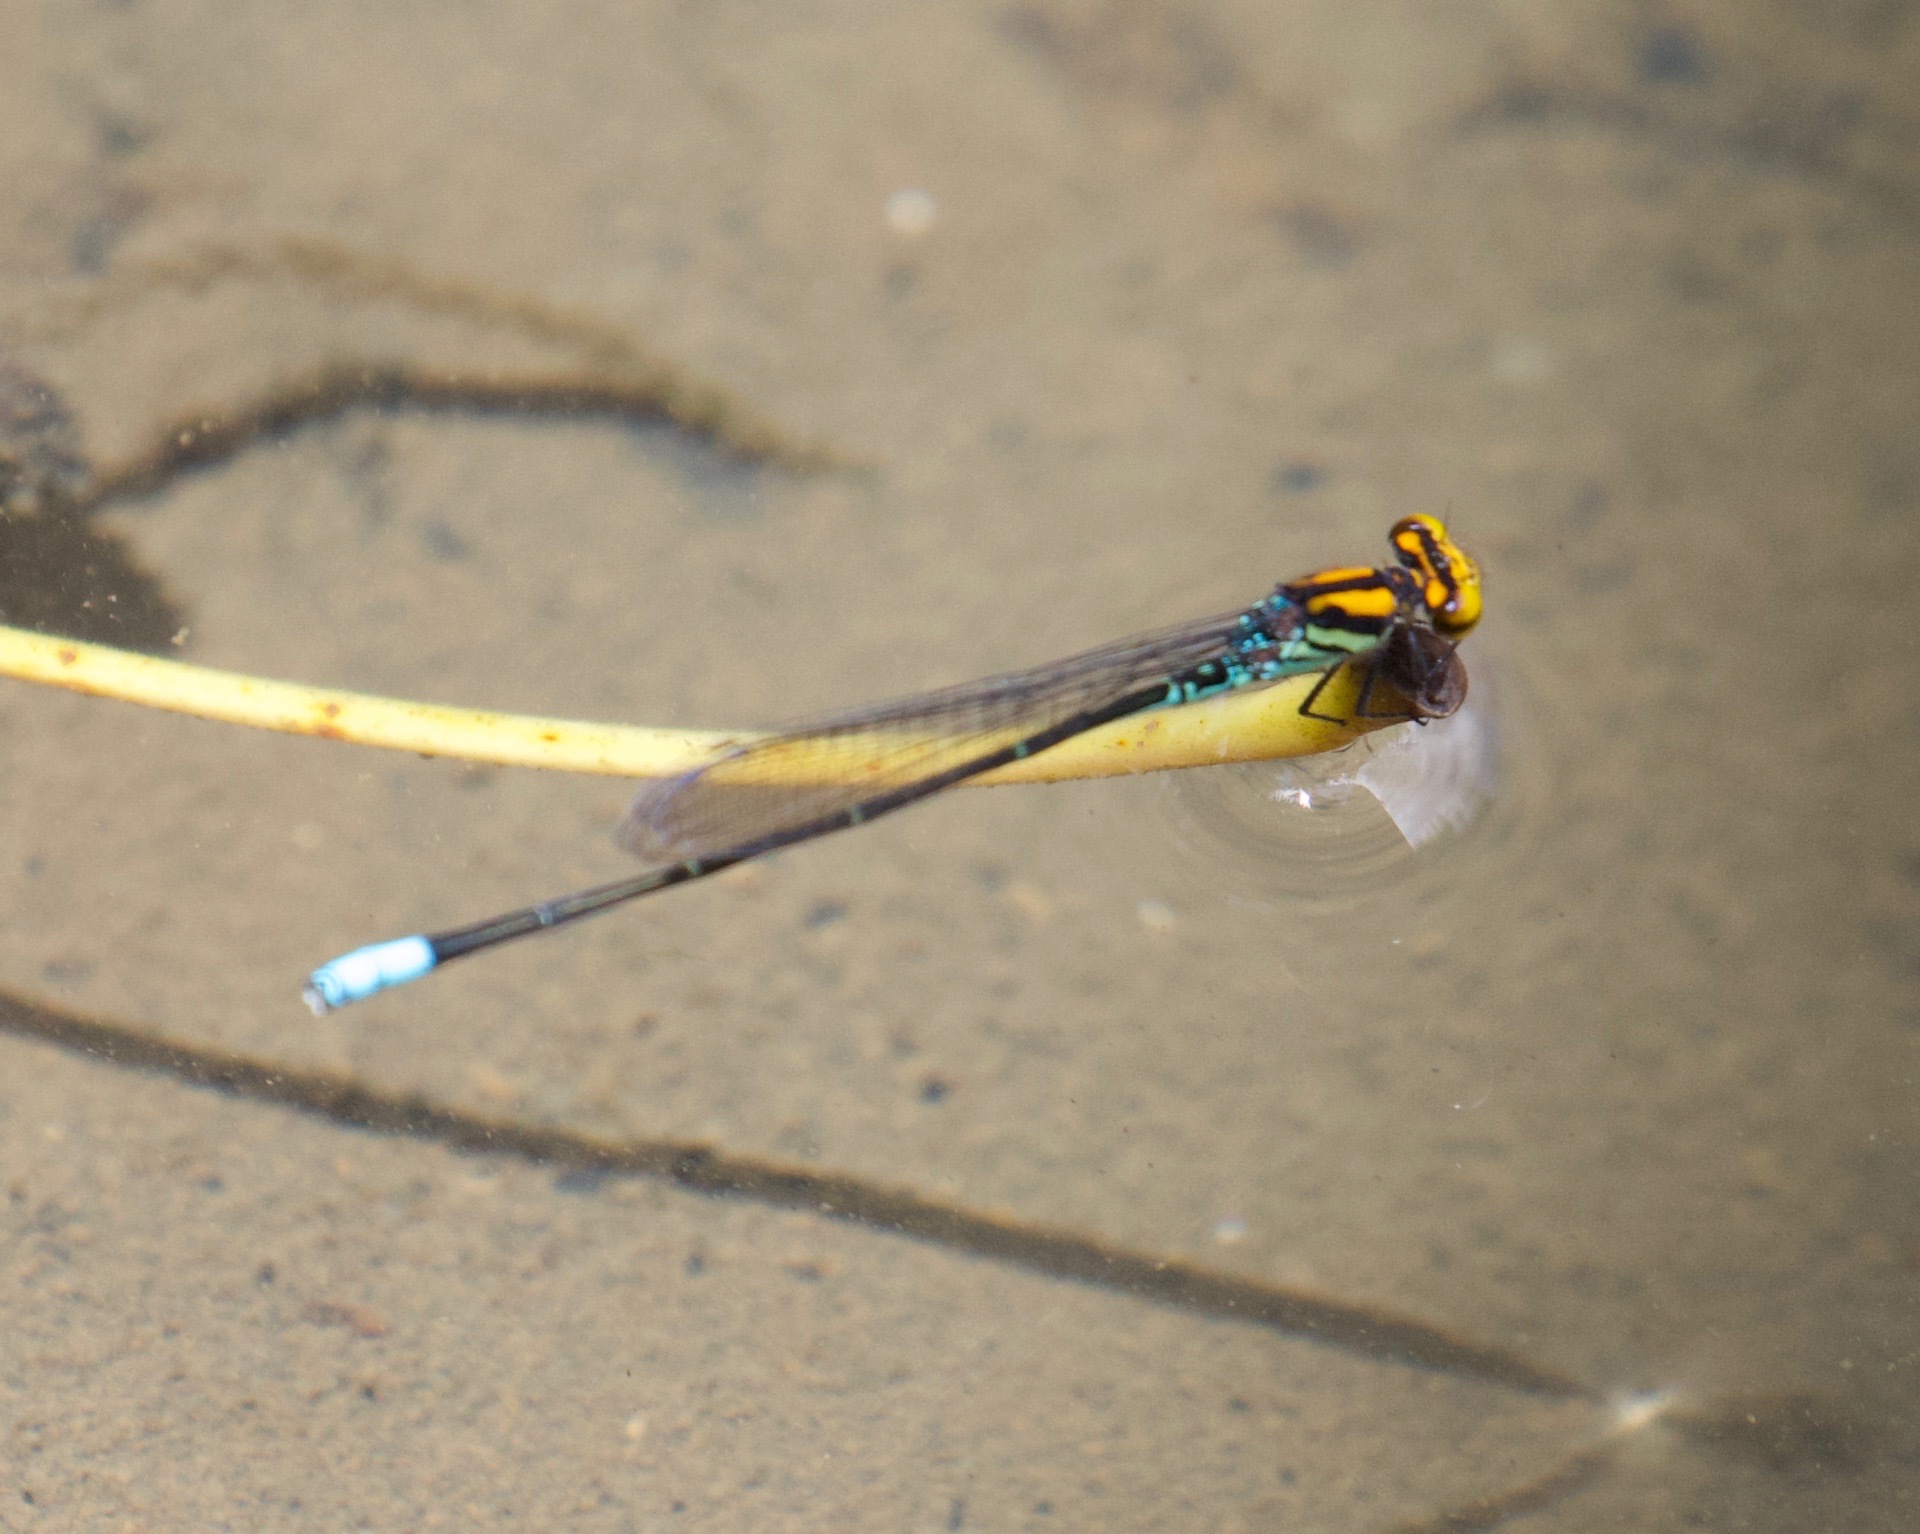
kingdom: Animalia
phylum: Arthropoda
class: Insecta
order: Odonata
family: Coenagrionidae
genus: Pseudagrion
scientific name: Pseudagrion punctum
